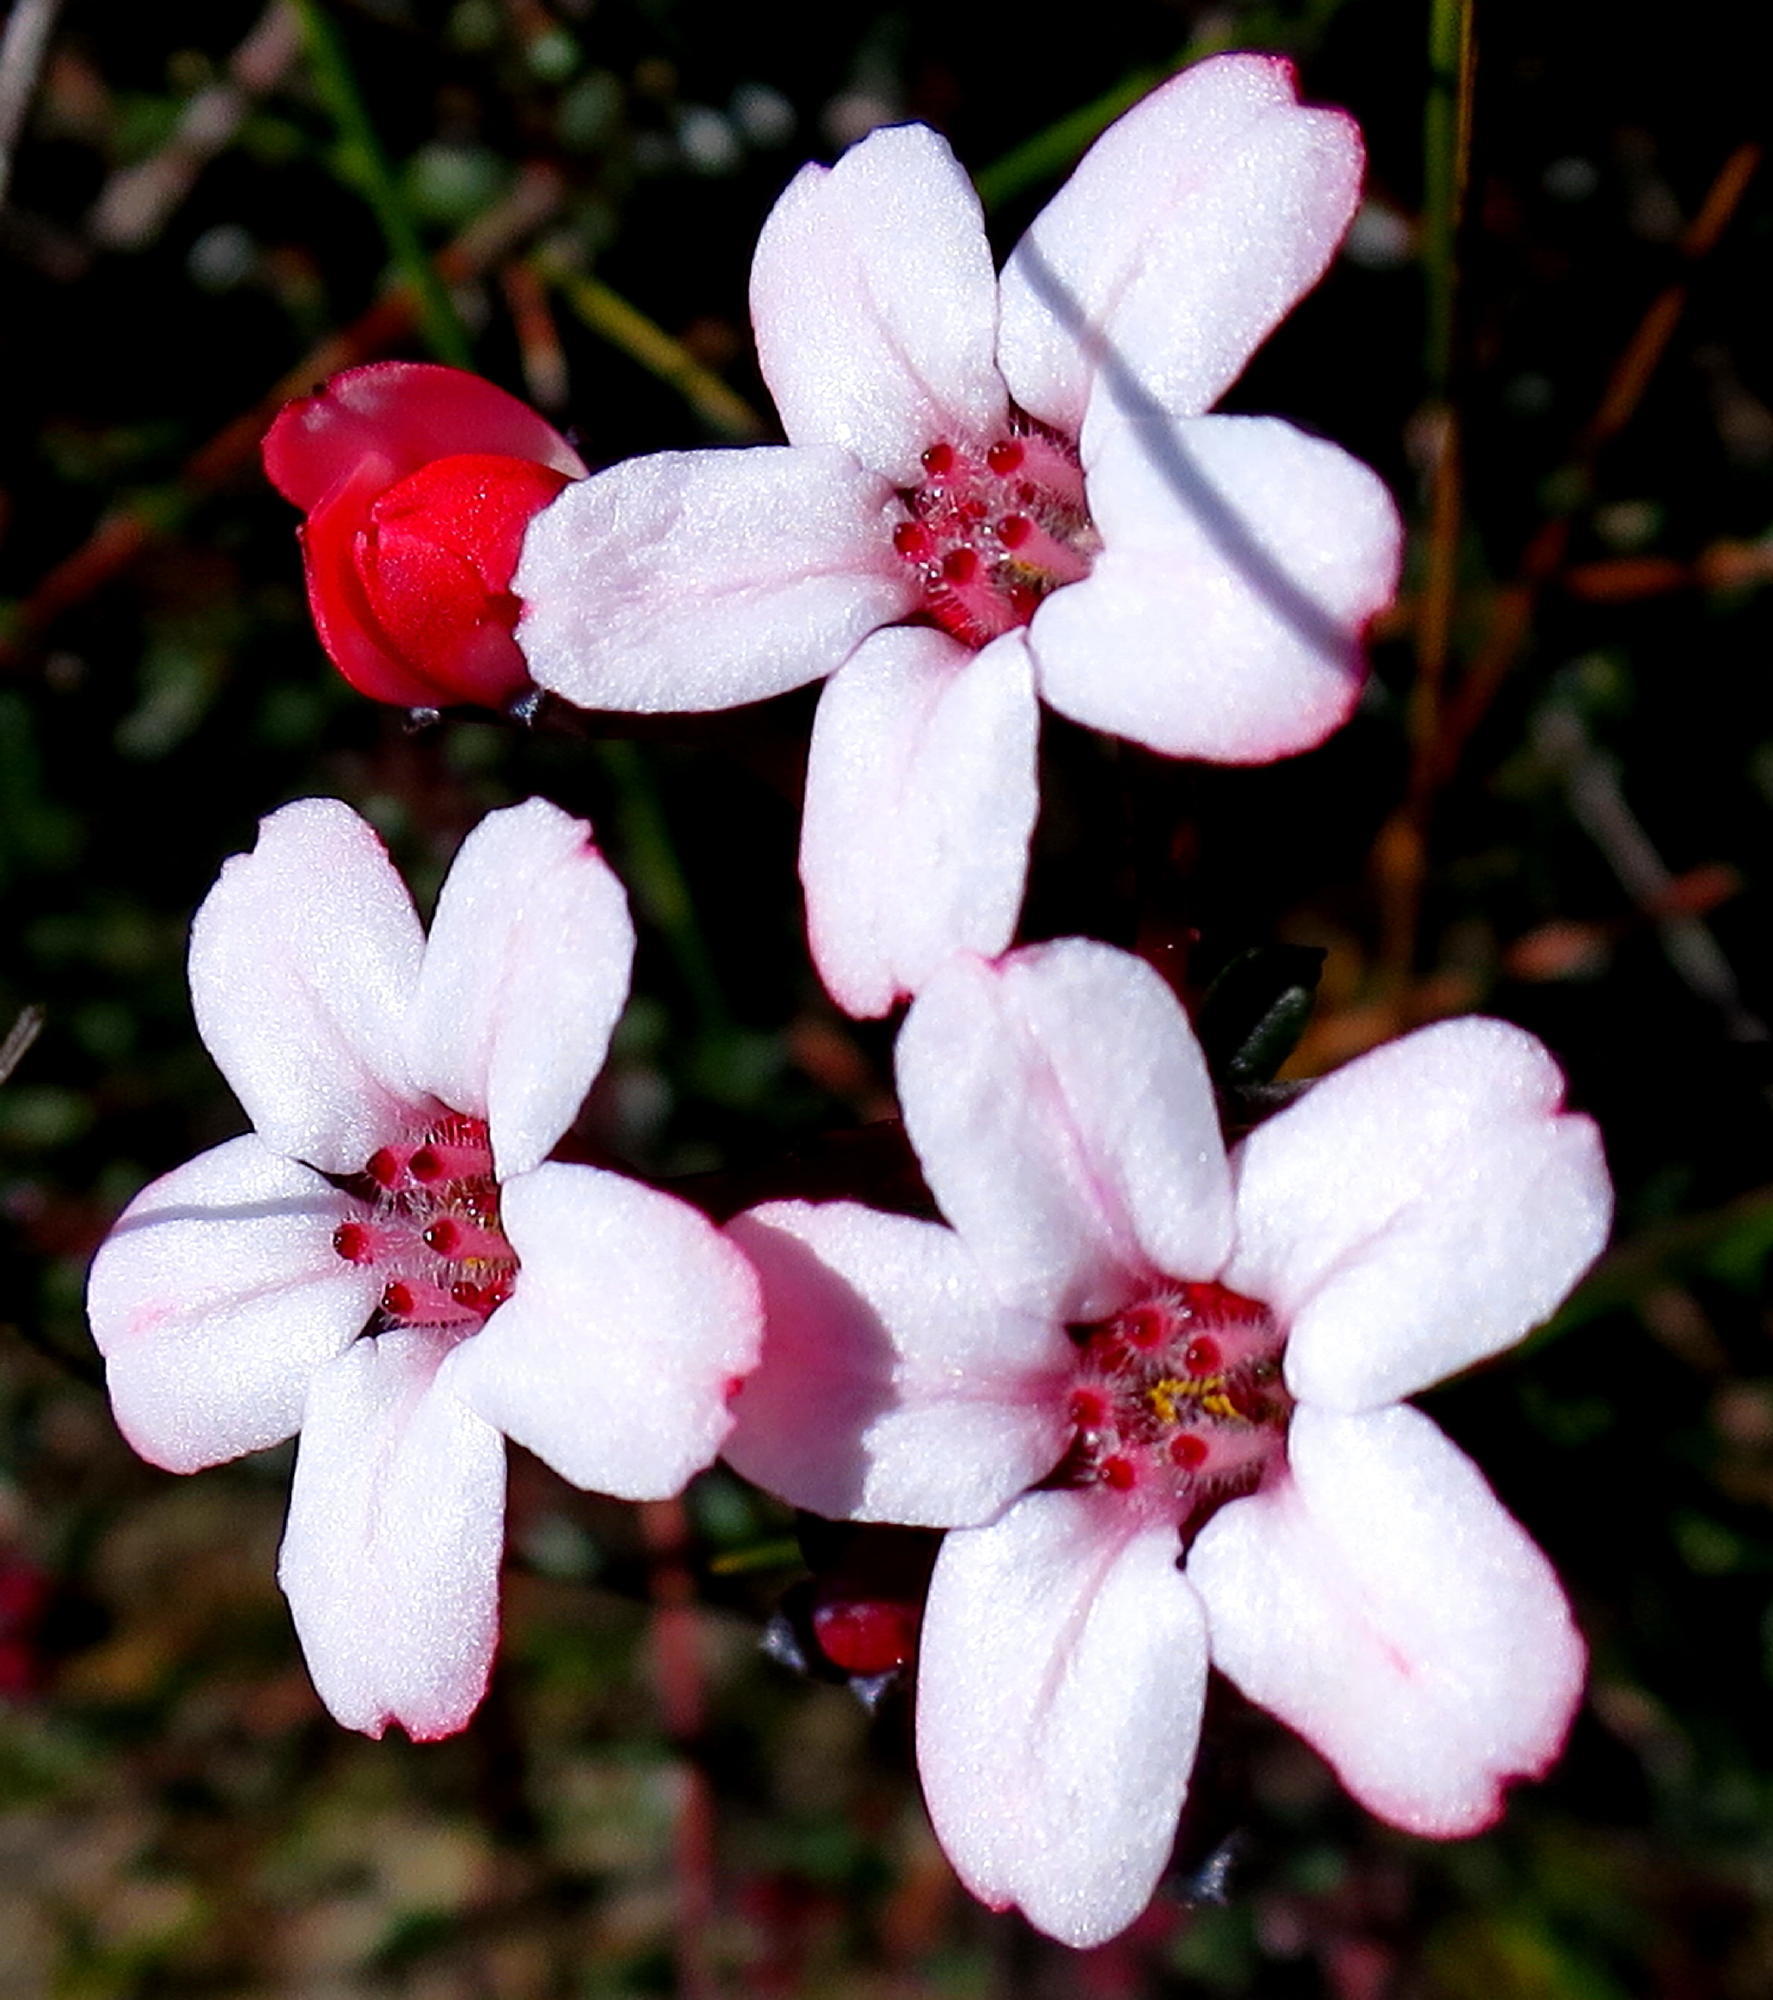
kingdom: Plantae
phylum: Tracheophyta
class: Magnoliopsida
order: Sapindales
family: Rutaceae
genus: Adenandra
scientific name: Adenandra mundiifolia
